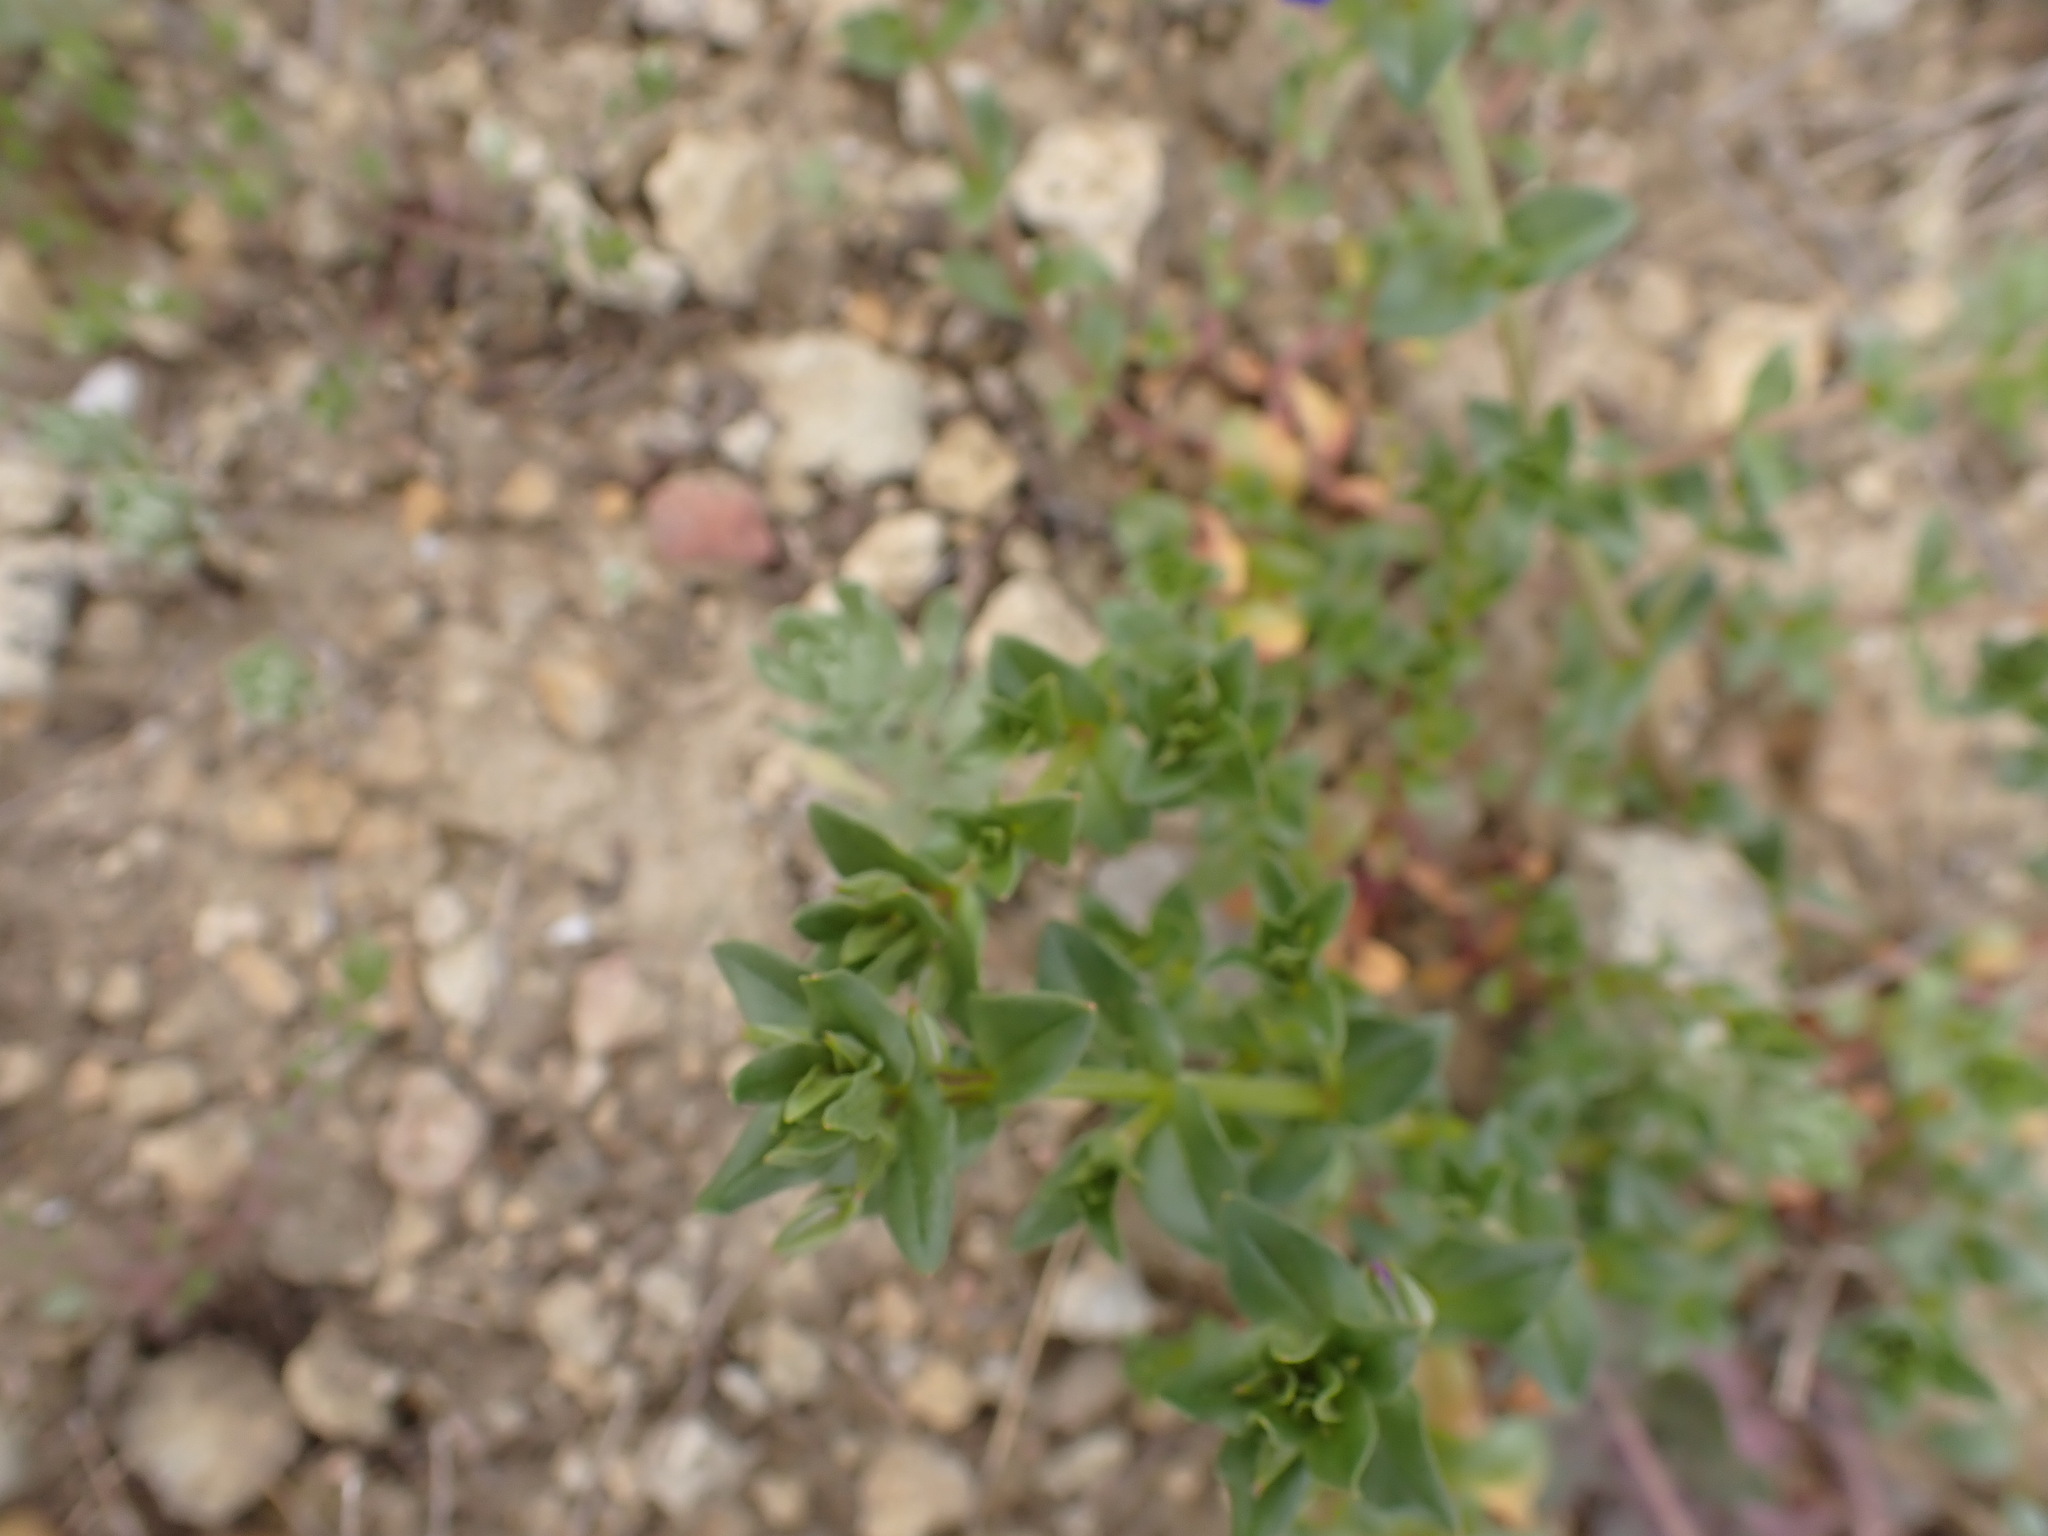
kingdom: Plantae
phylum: Tracheophyta
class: Magnoliopsida
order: Ericales
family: Primulaceae
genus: Lysimachia
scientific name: Lysimachia foemina
